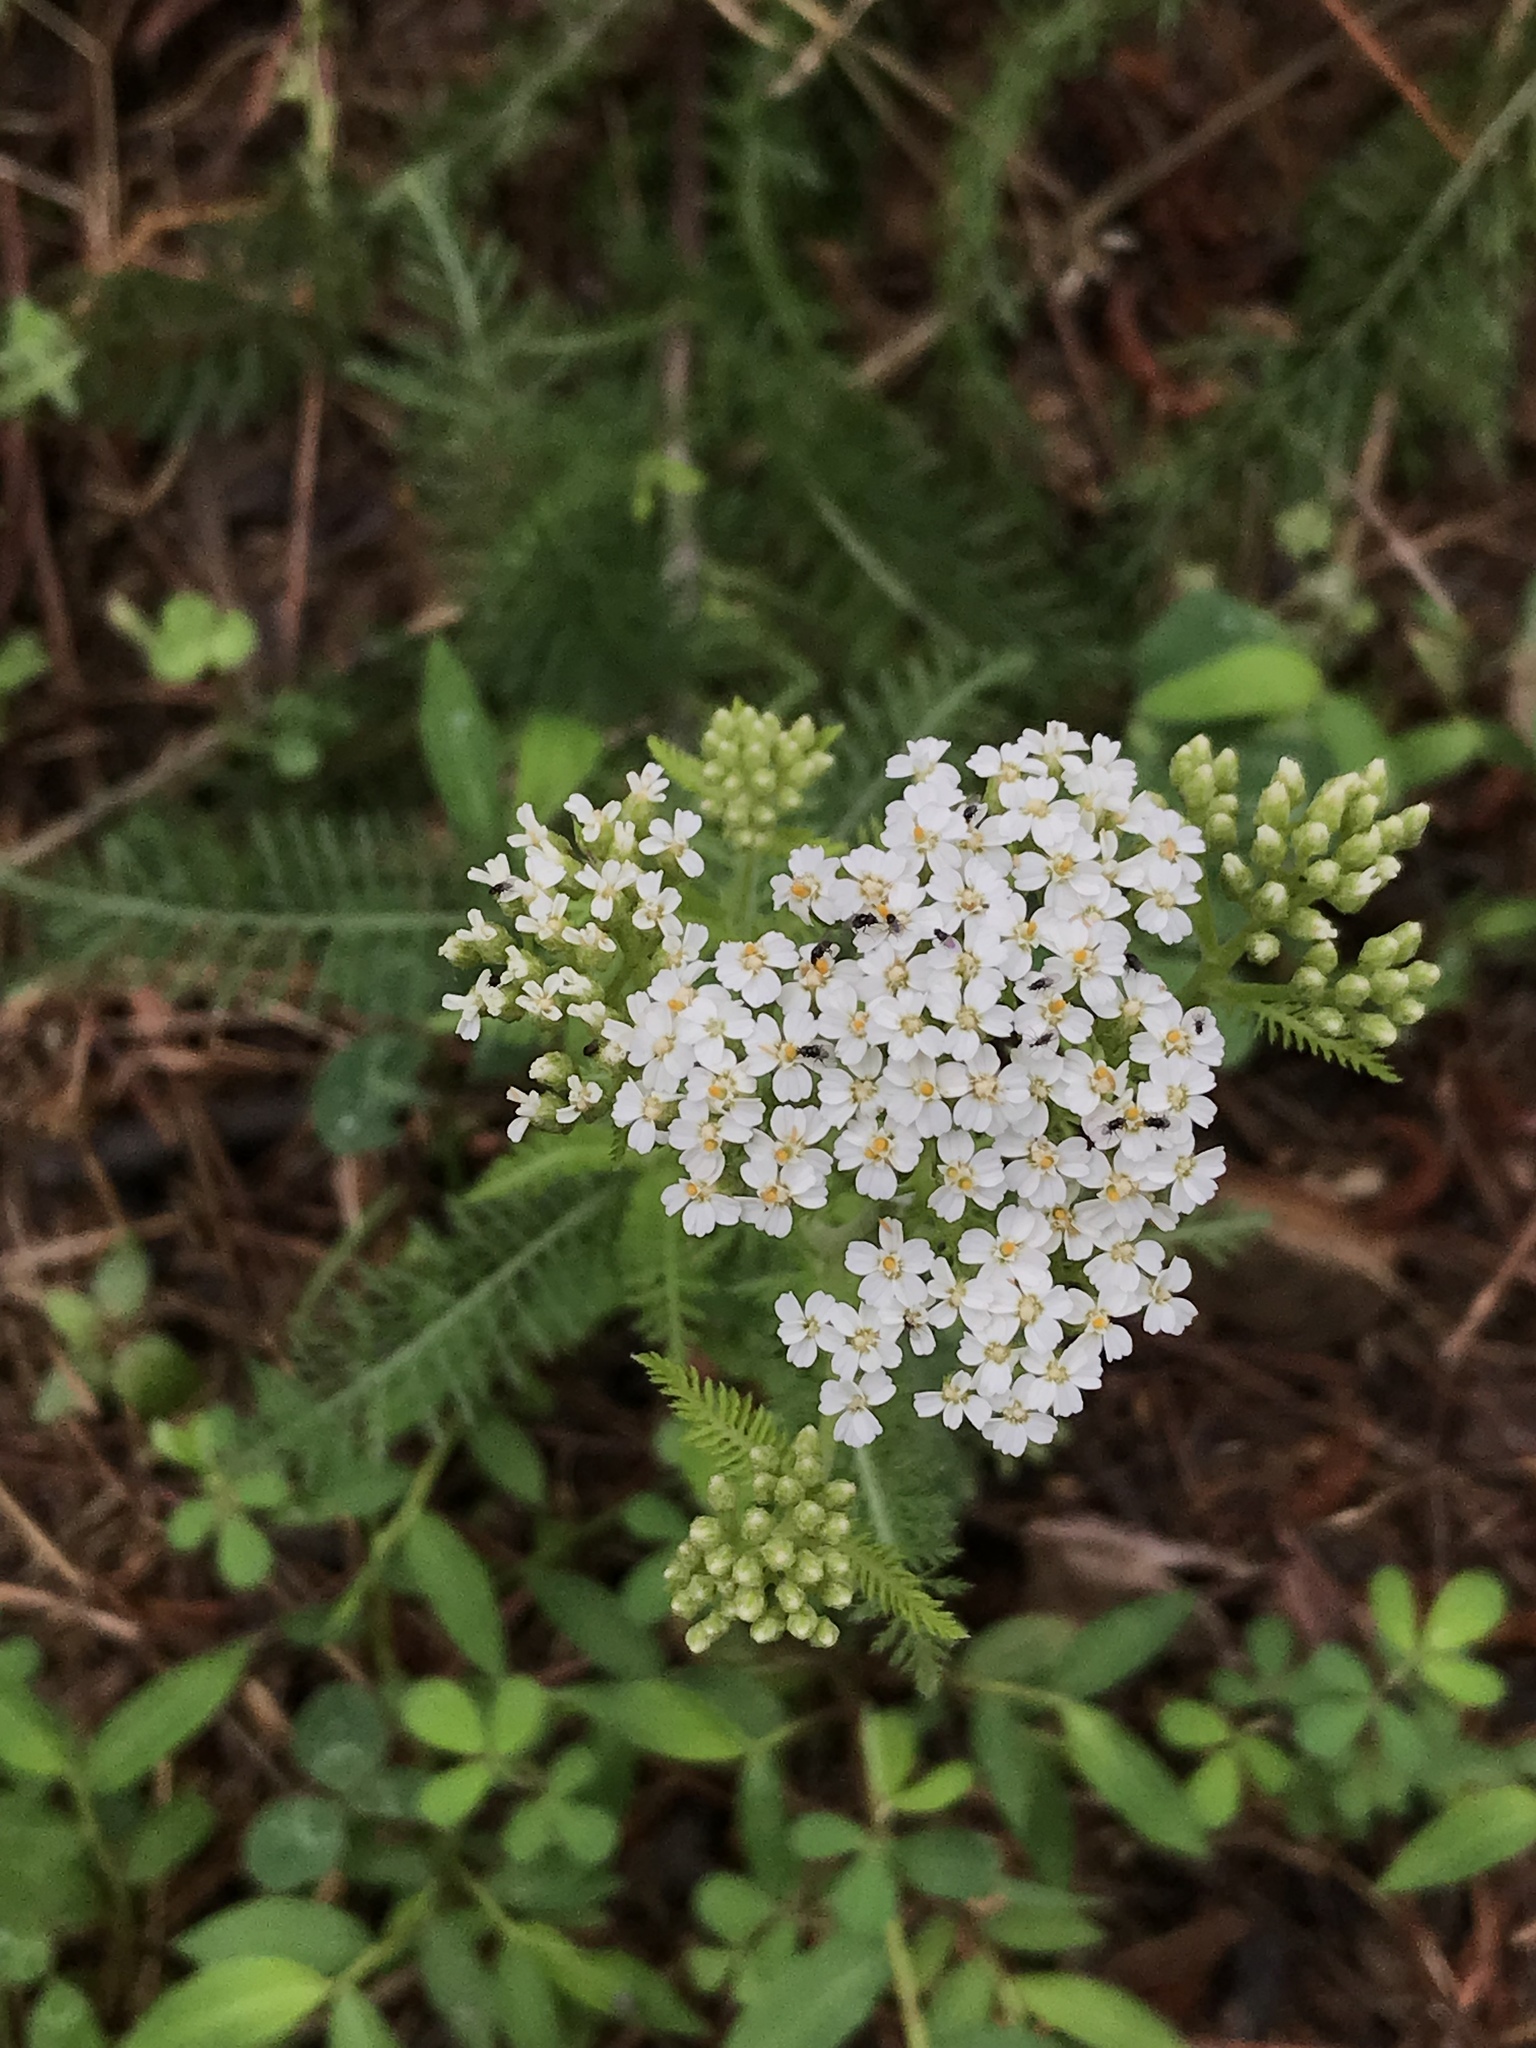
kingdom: Plantae
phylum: Tracheophyta
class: Magnoliopsida
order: Asterales
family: Asteraceae
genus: Achillea
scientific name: Achillea millefolium
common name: Yarrow
